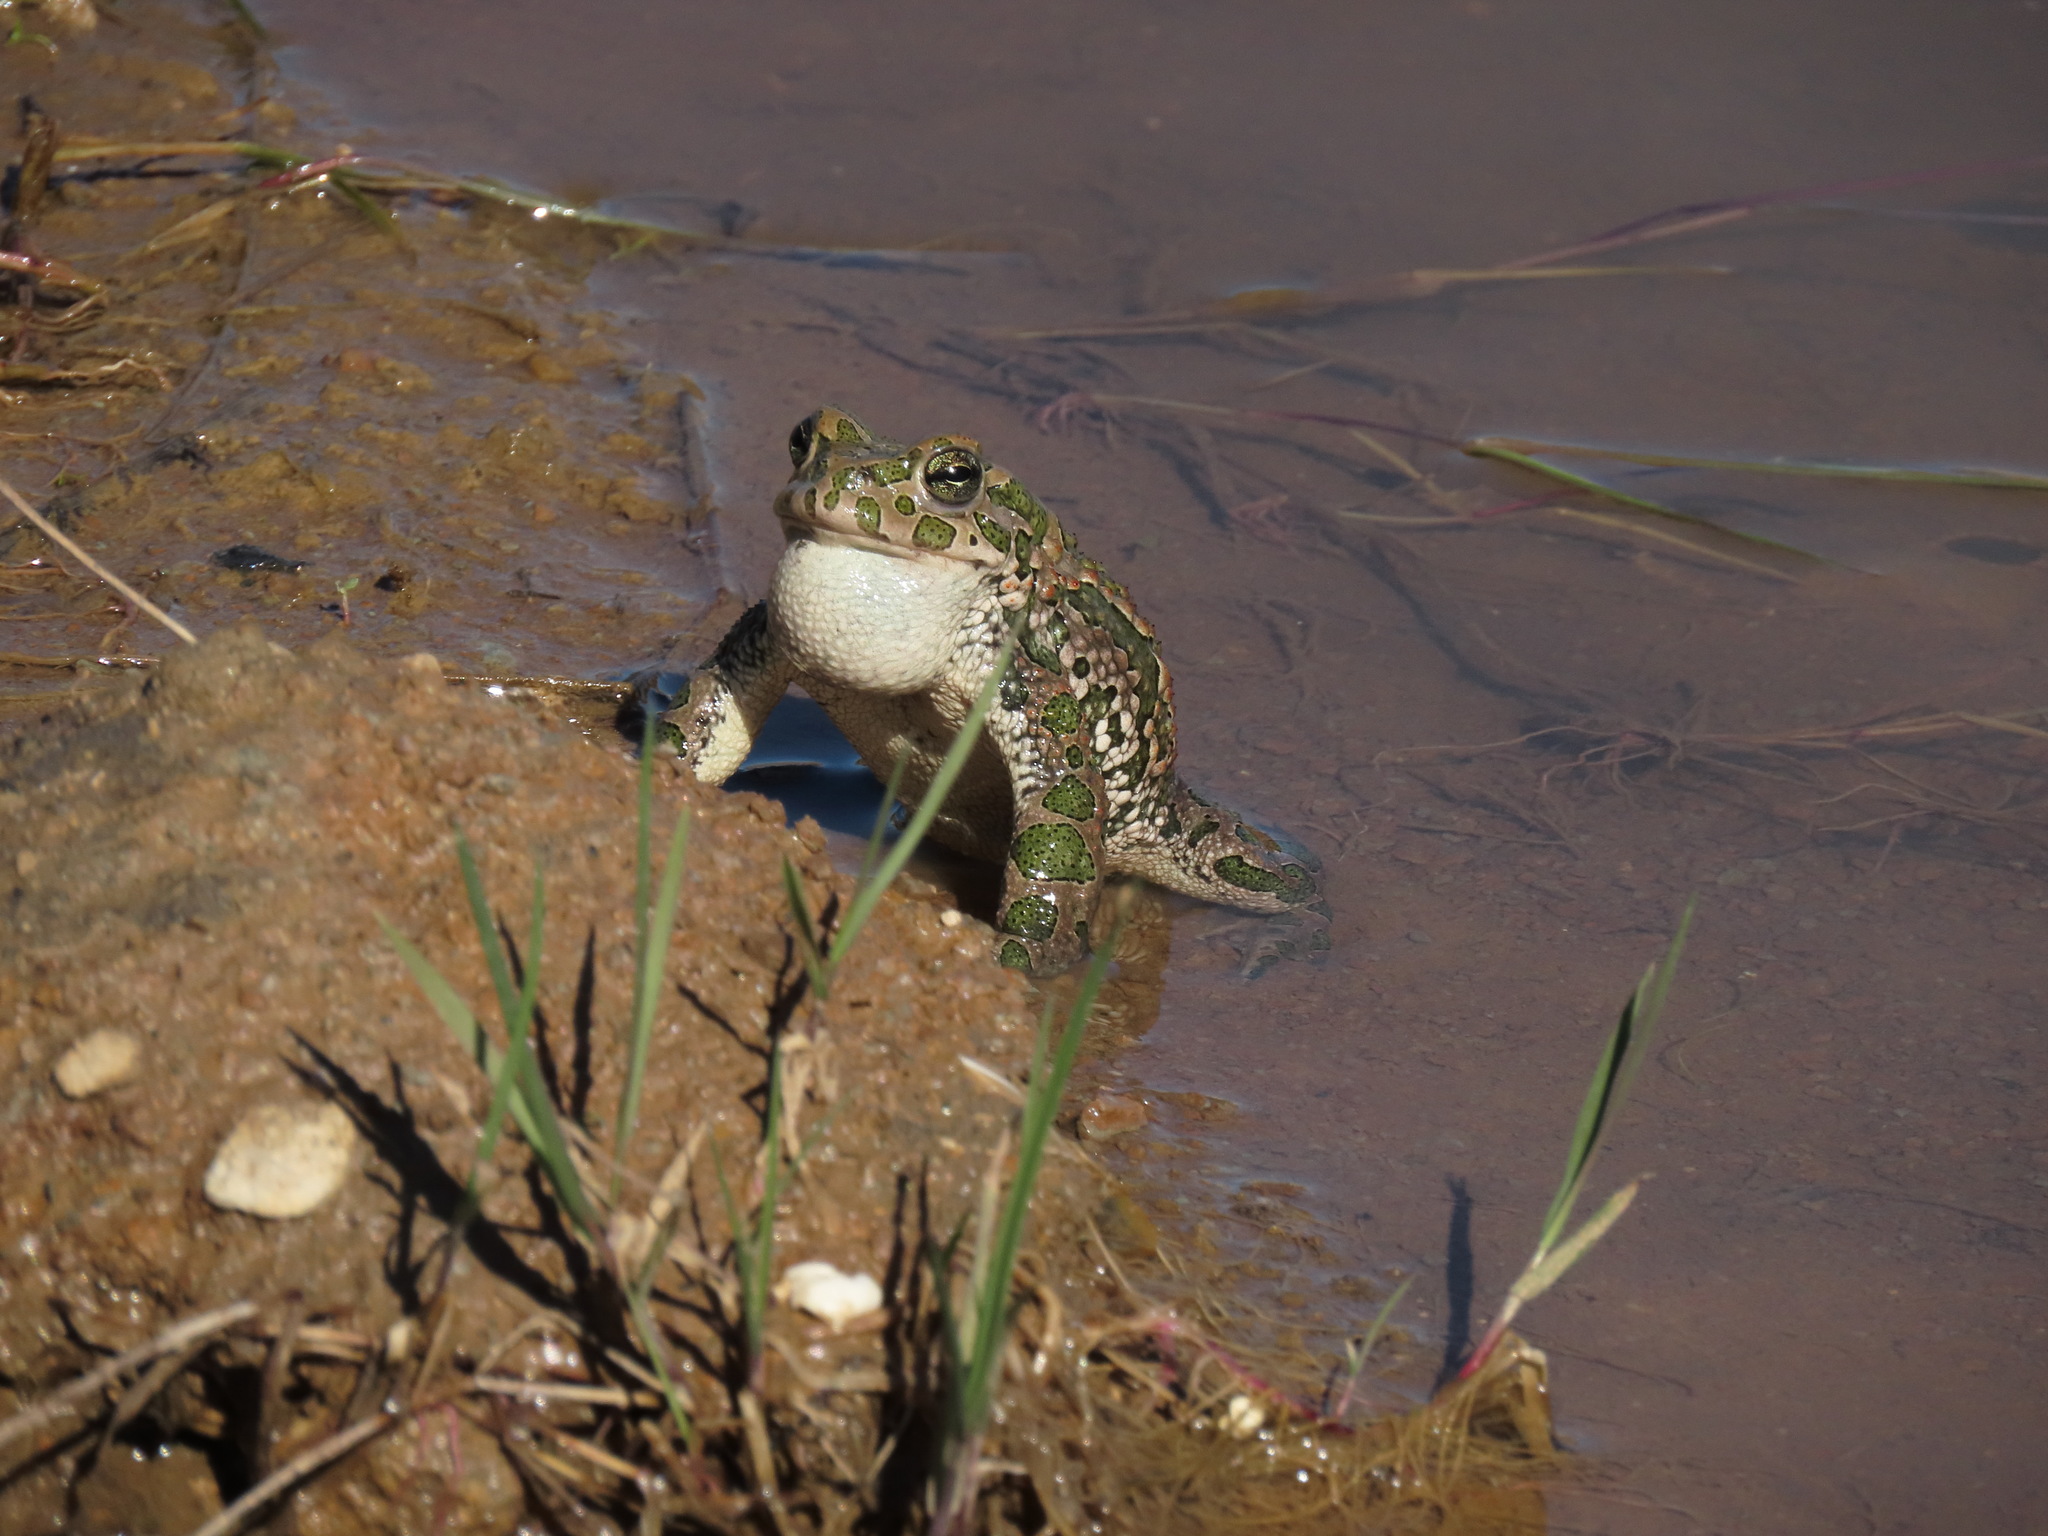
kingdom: Animalia
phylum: Chordata
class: Amphibia
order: Anura
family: Bufonidae
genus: Bufotes
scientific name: Bufotes viridis
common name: European green toad
